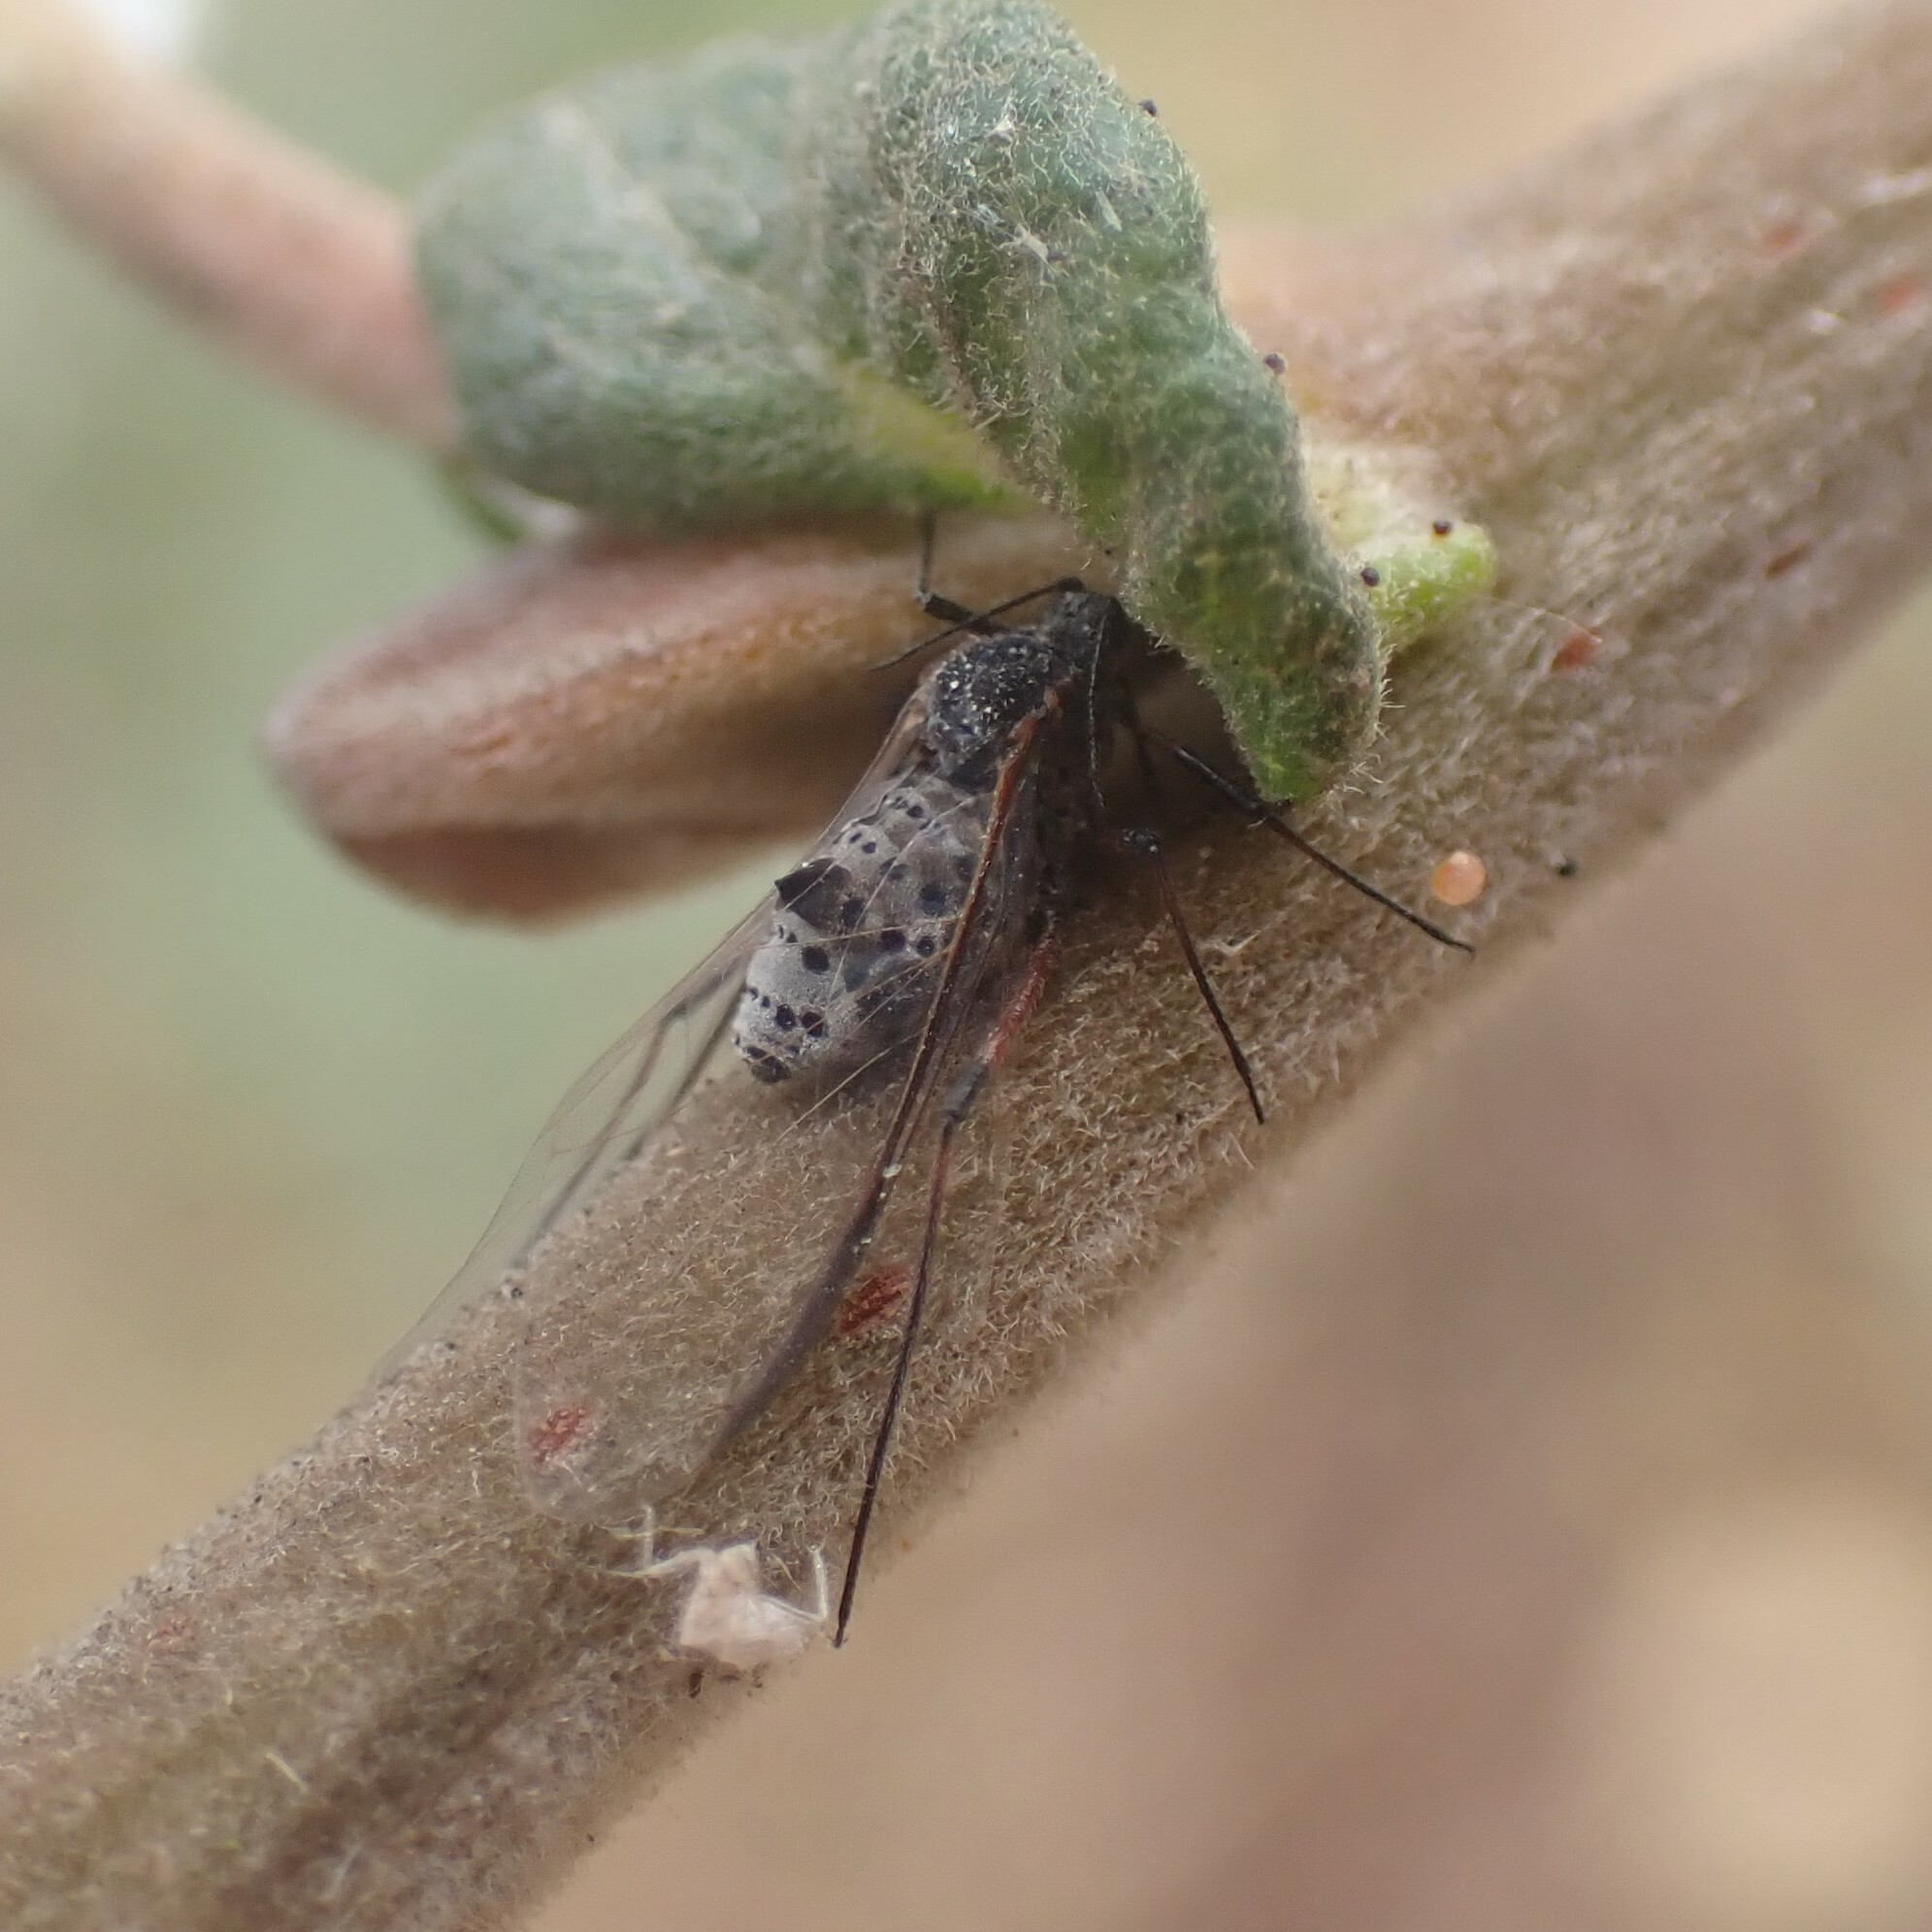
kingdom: Animalia
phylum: Arthropoda
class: Insecta
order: Hemiptera
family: Aphididae
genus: Tuberolachnus
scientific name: Tuberolachnus salignus
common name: Giant willow aphid
